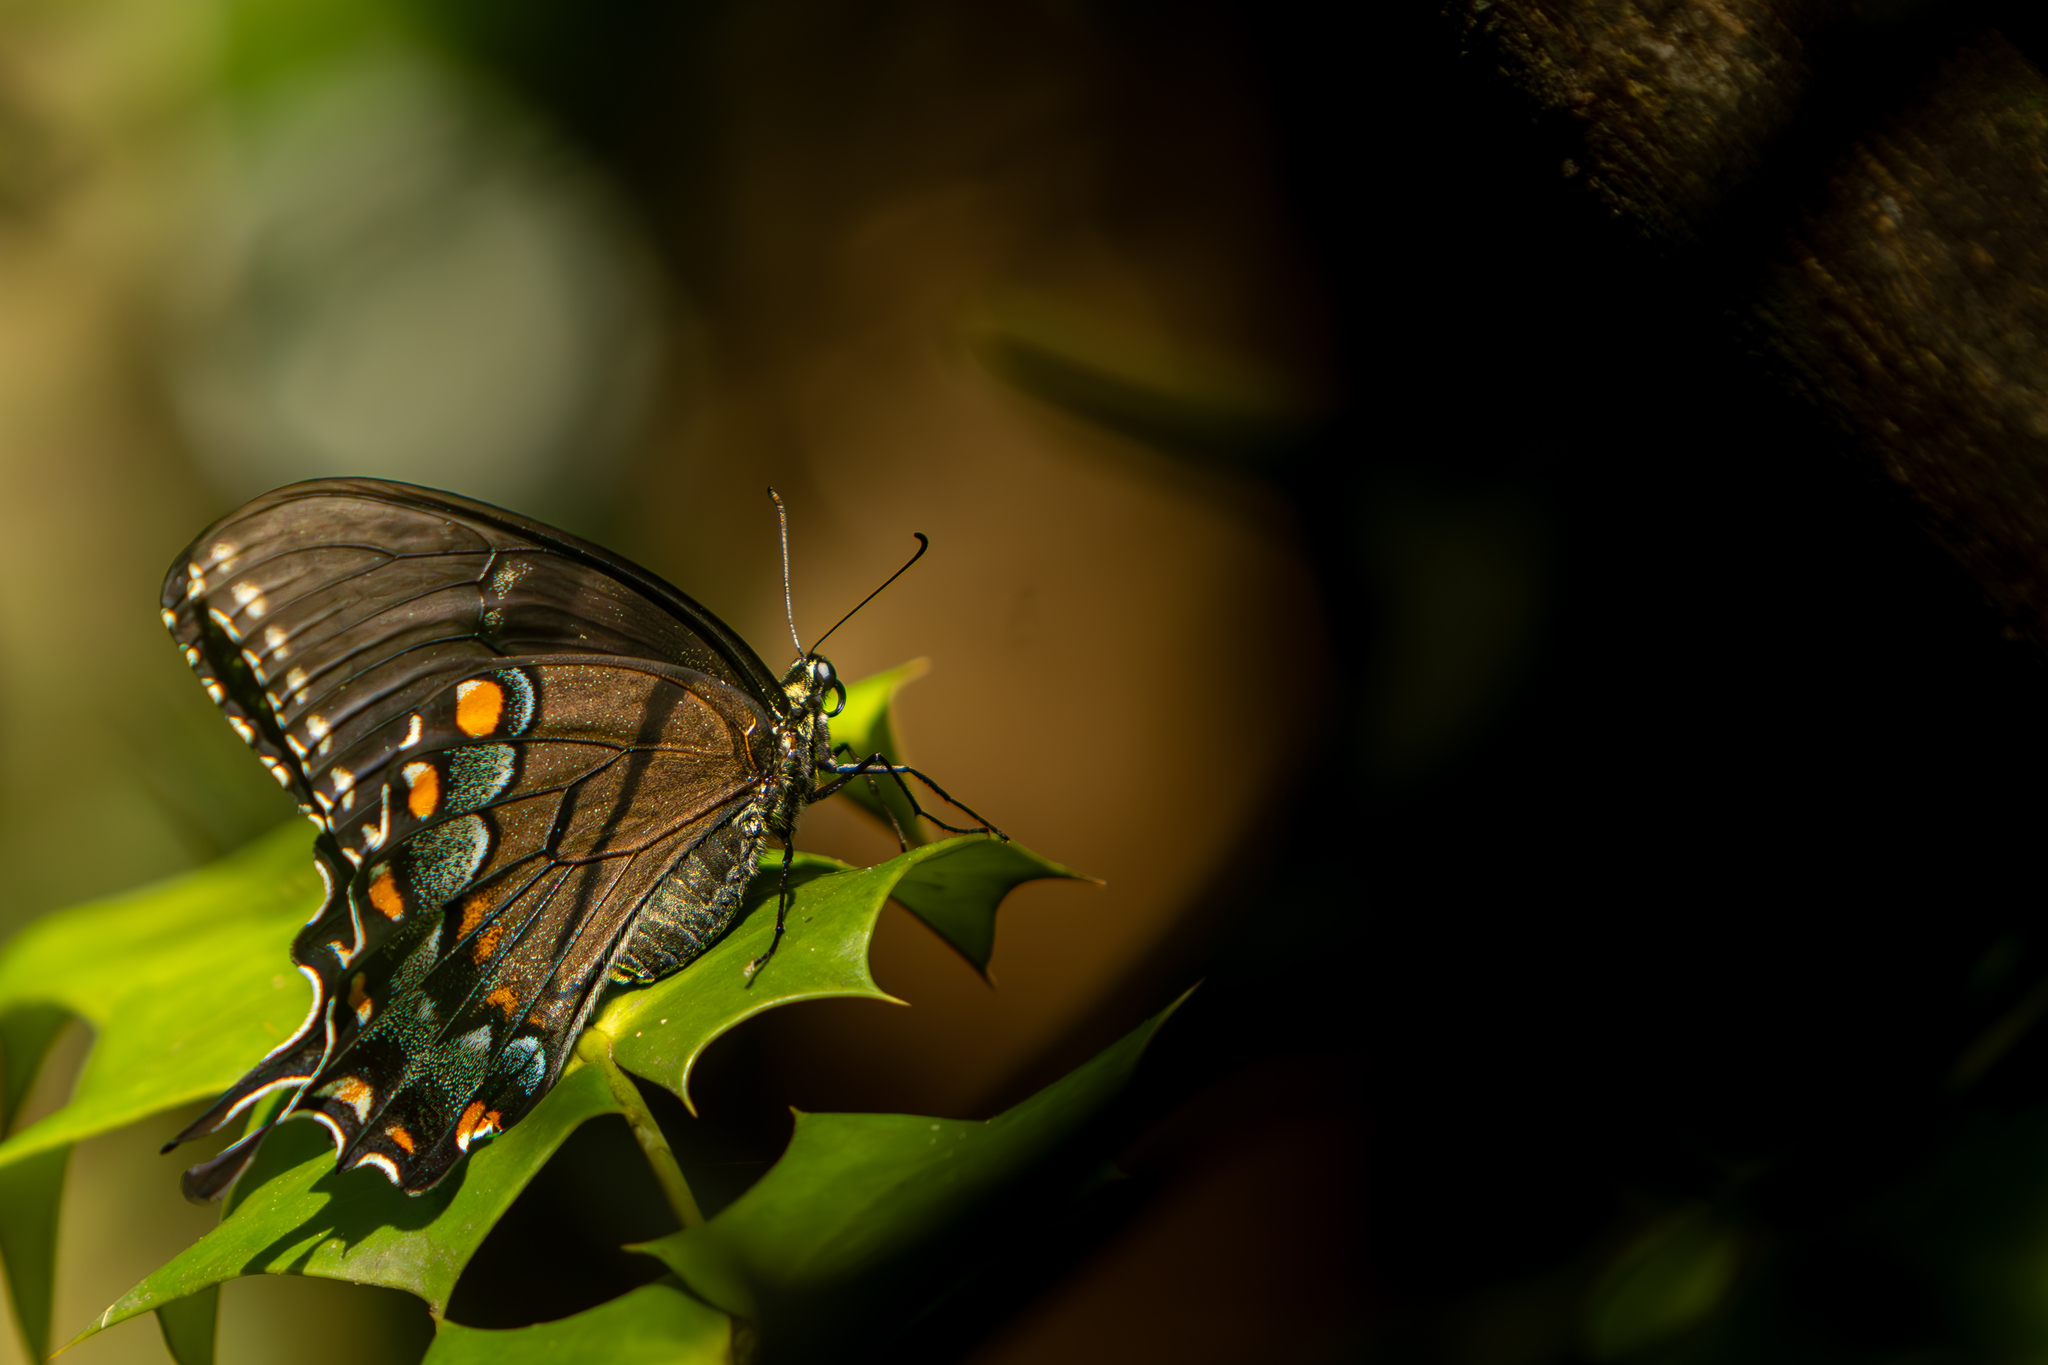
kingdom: Animalia
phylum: Arthropoda
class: Insecta
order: Lepidoptera
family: Papilionidae
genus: Papilio
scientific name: Papilio glaucus
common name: Tiger swallowtail
